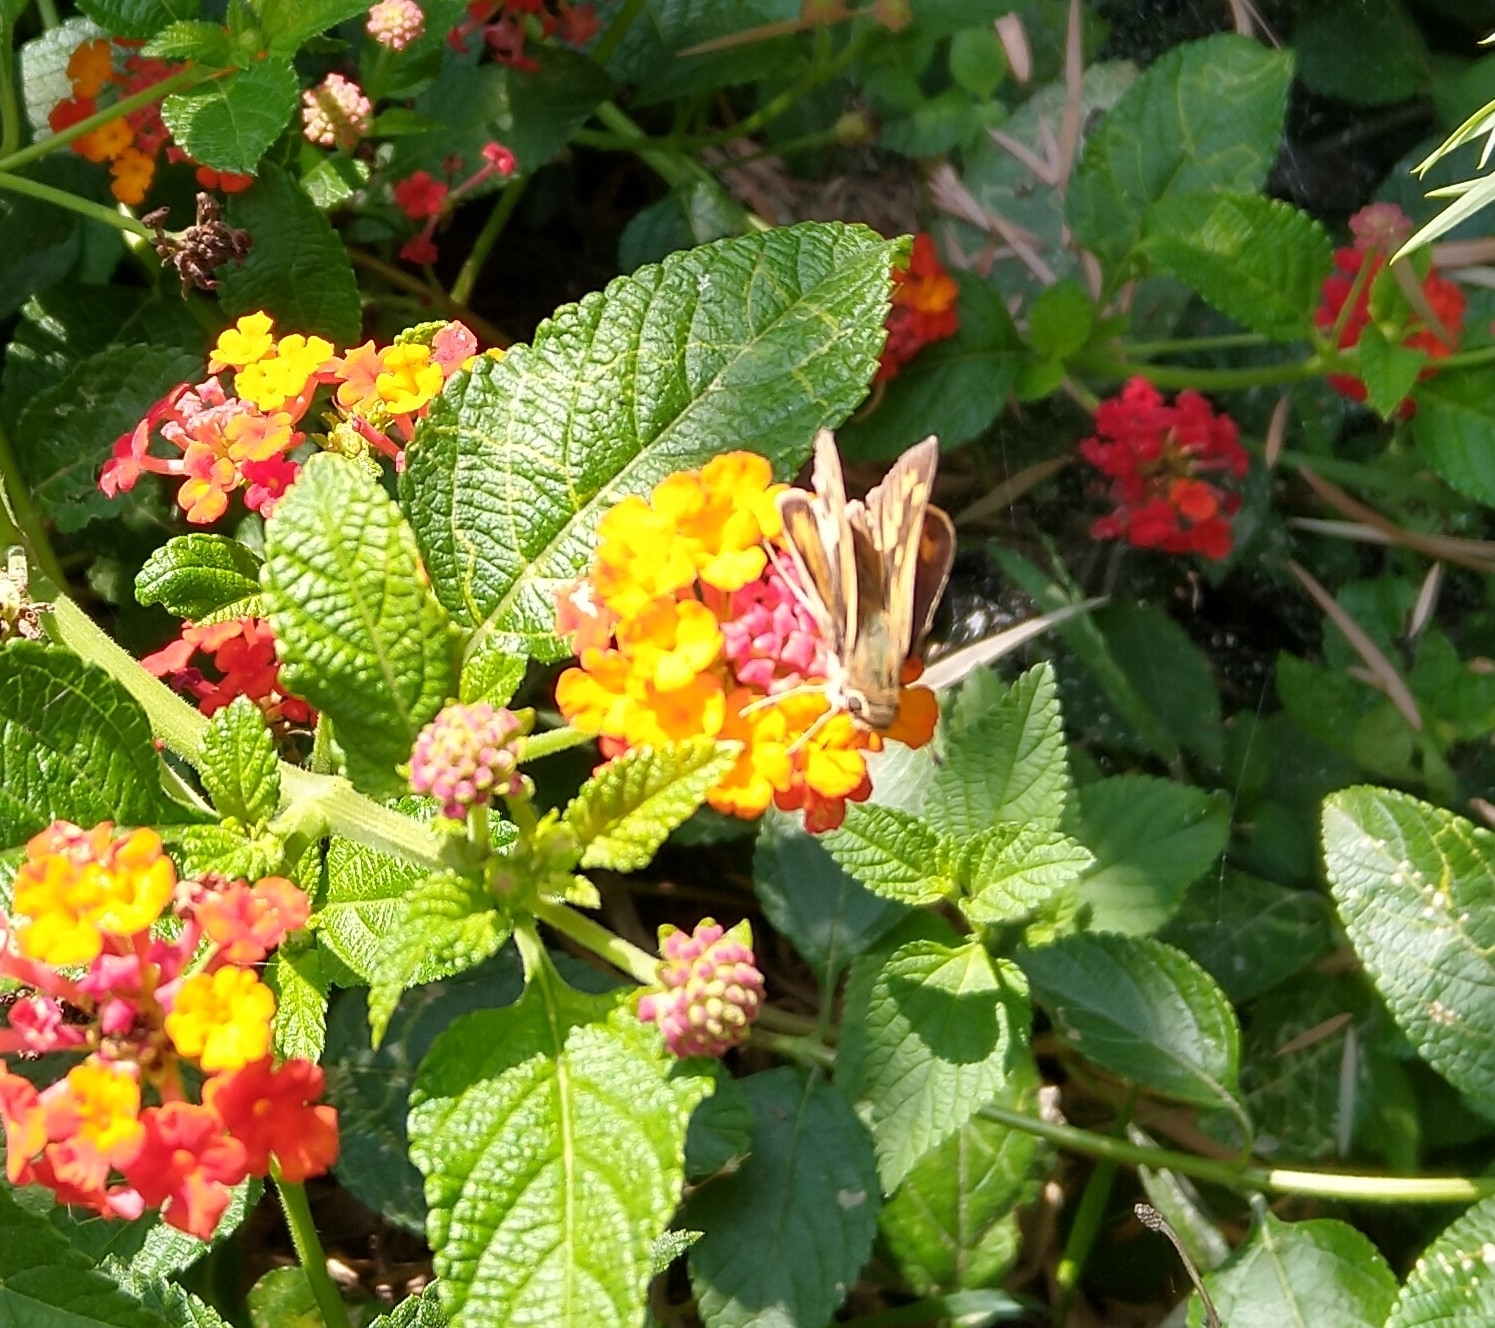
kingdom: Animalia
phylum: Arthropoda
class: Insecta
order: Lepidoptera
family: Hesperiidae
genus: Hylephila
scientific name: Hylephila phyleus
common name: Fiery skipper
